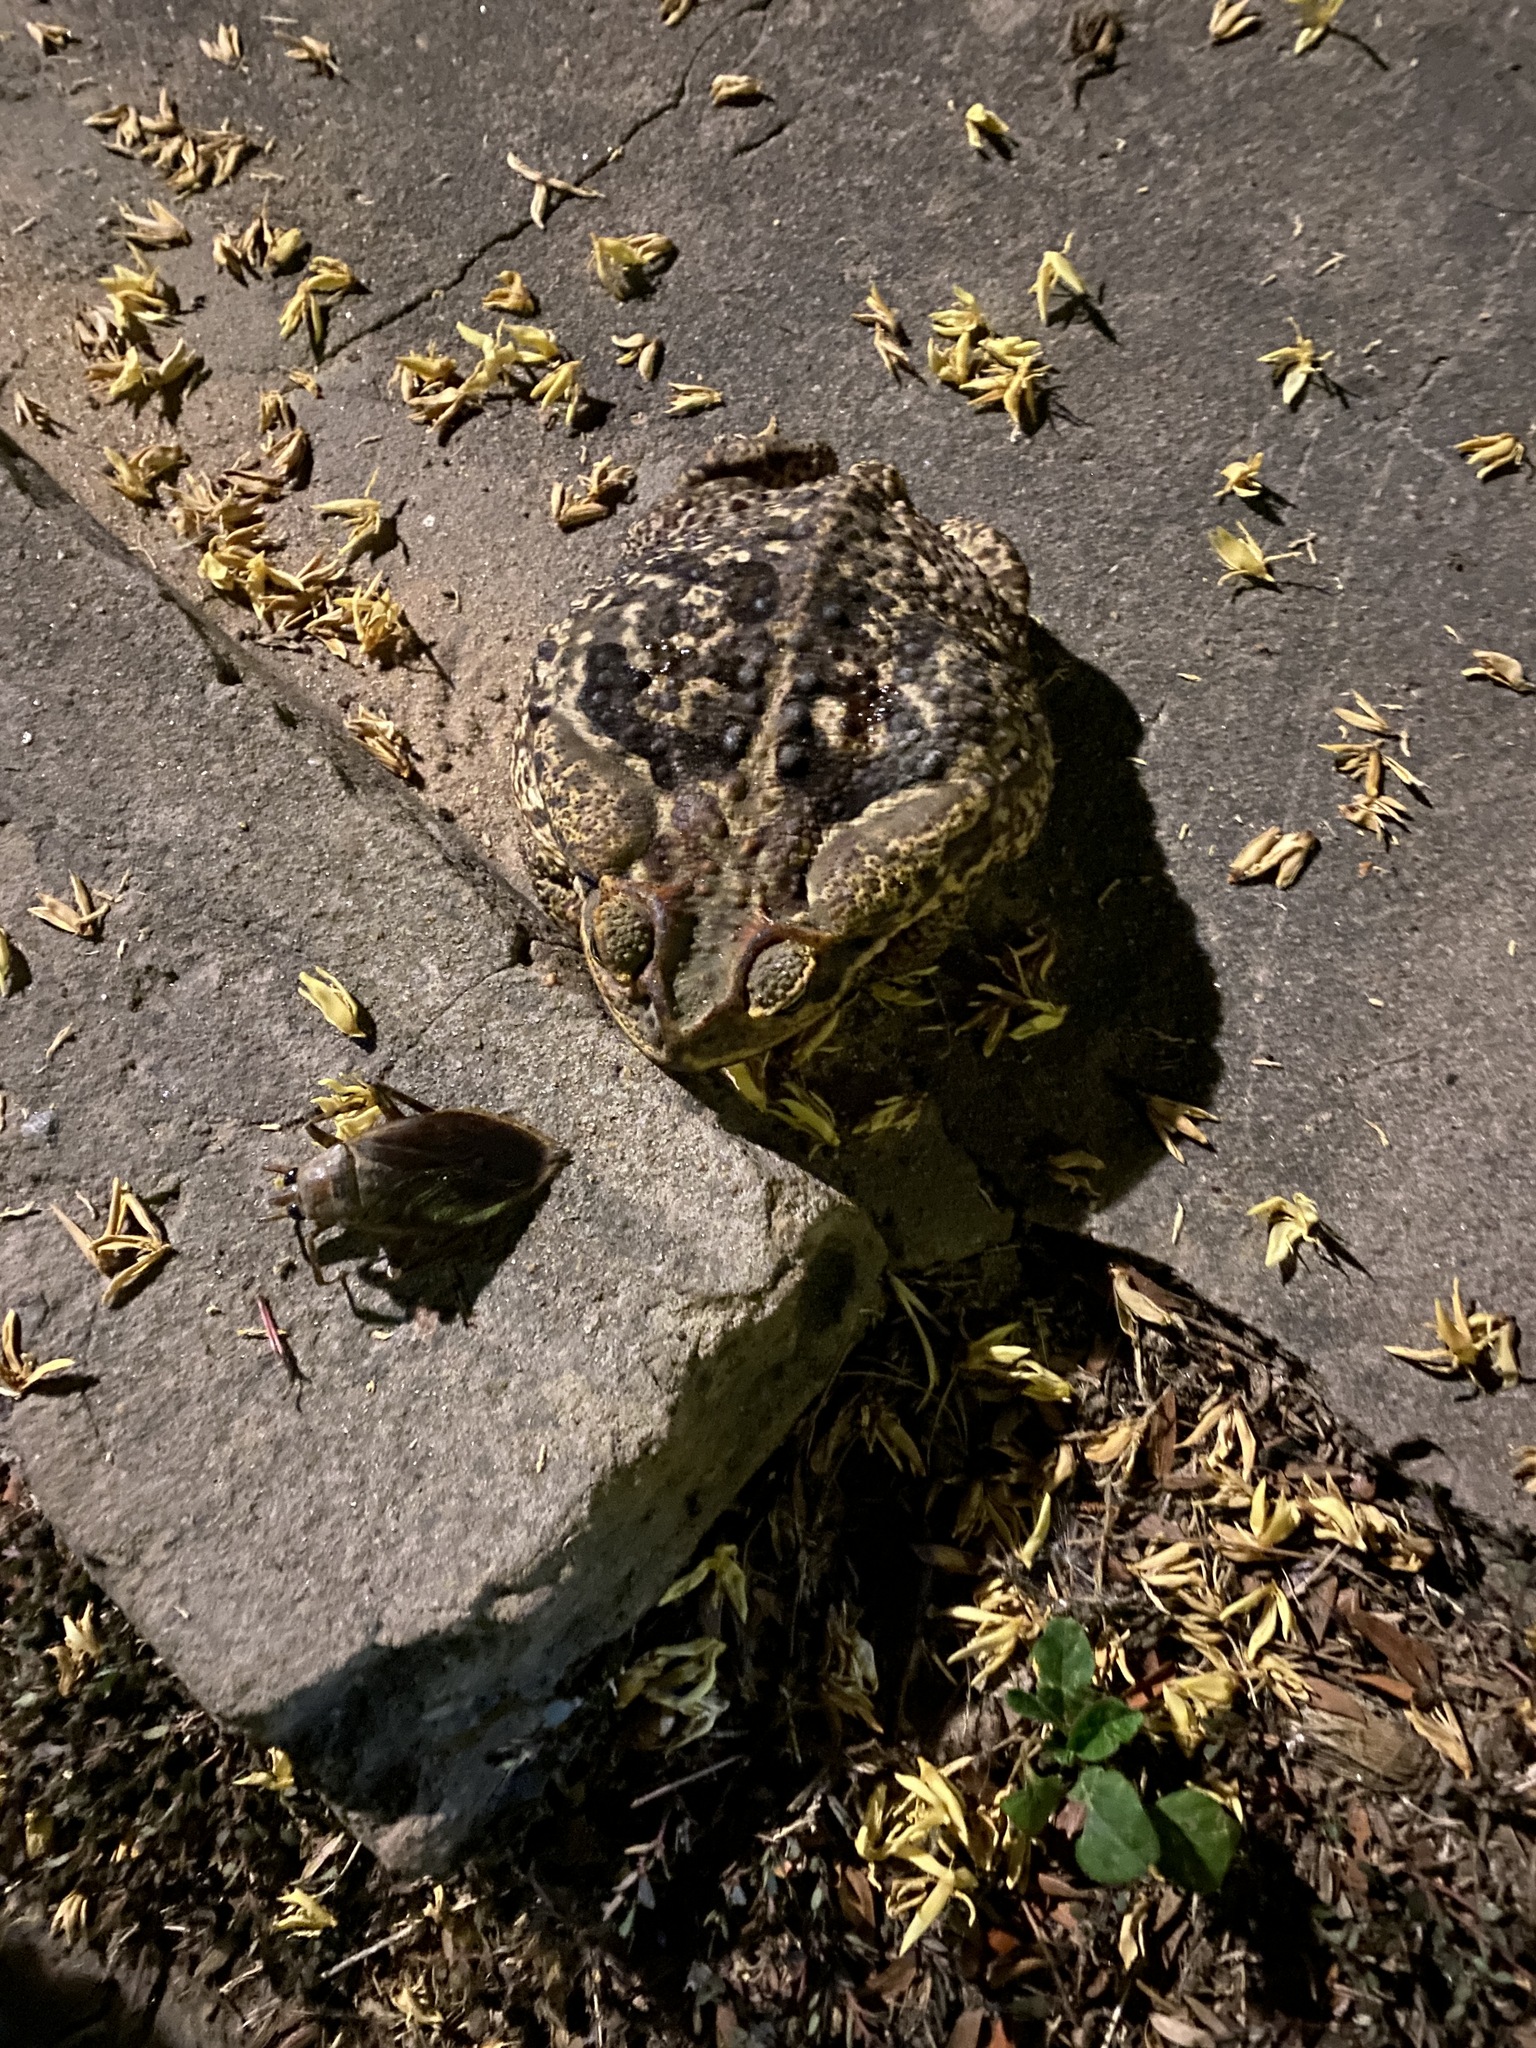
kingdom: Animalia
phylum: Chordata
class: Amphibia
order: Anura
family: Bufonidae
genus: Rhinella
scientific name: Rhinella diptycha
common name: Cope's toad
